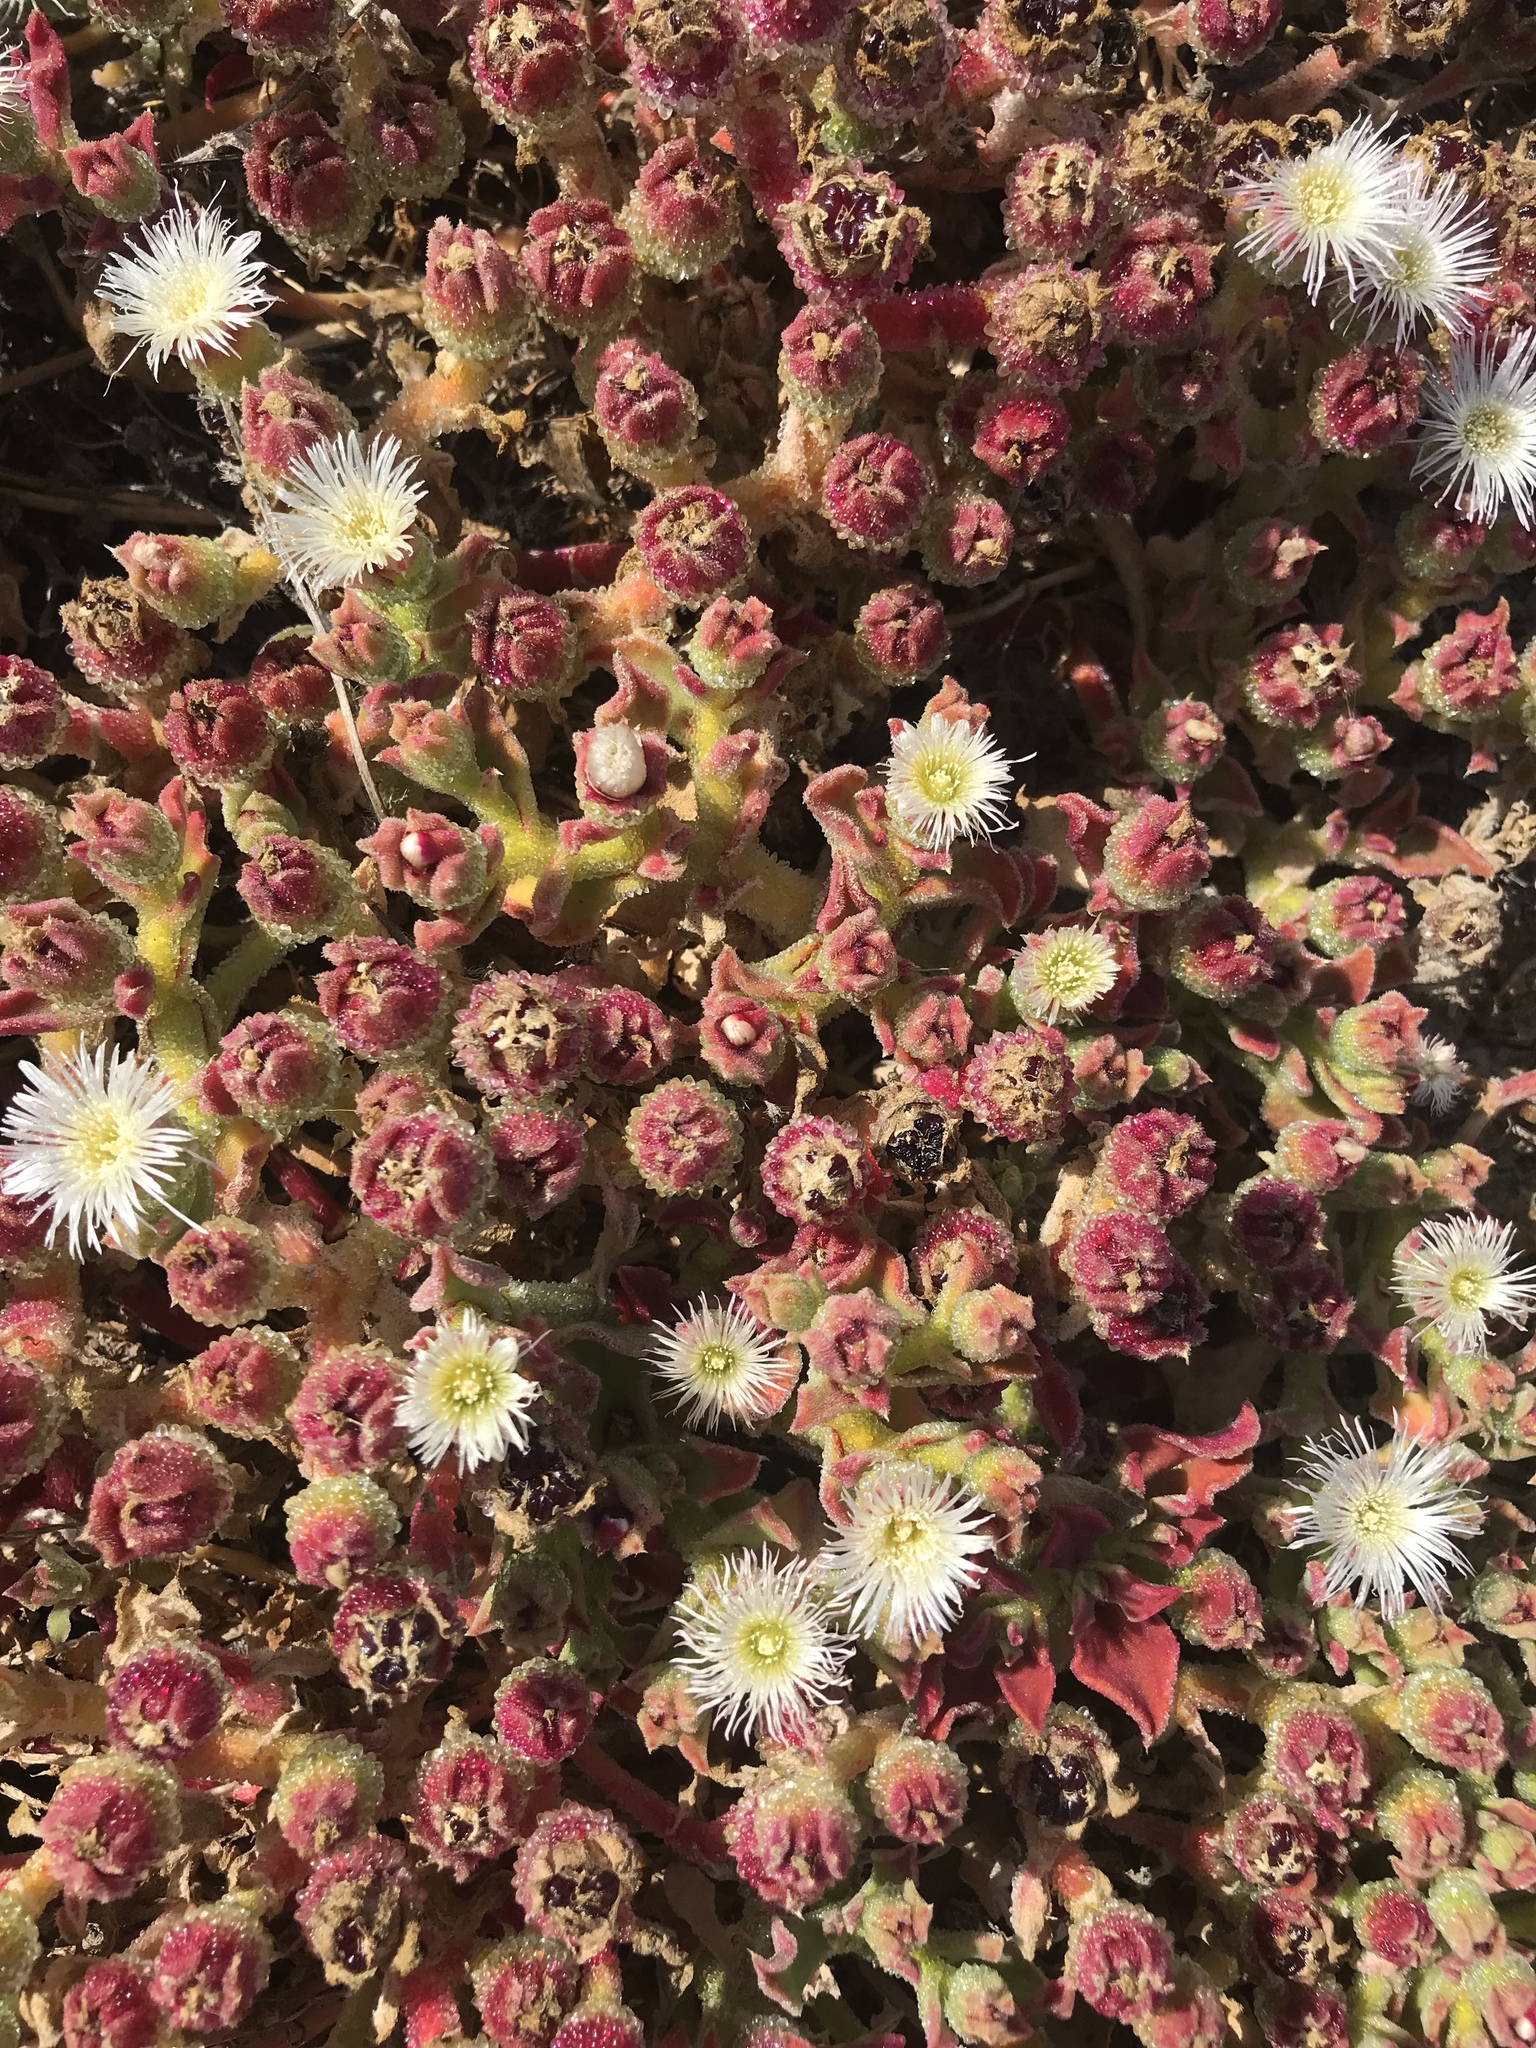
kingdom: Plantae
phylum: Tracheophyta
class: Magnoliopsida
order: Caryophyllales
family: Aizoaceae
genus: Mesembryanthemum
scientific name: Mesembryanthemum crystallinum
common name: Common iceplant
